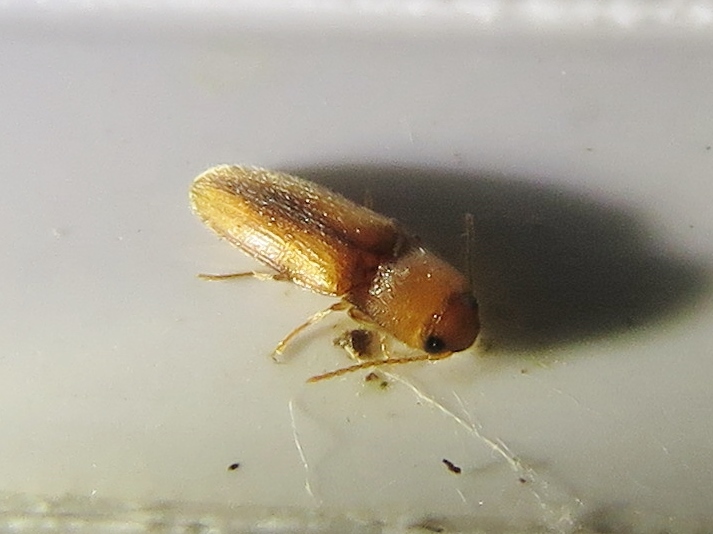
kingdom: Animalia
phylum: Arthropoda
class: Insecta
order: Coleoptera
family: Elateridae
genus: Glyphonyx
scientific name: Glyphonyx
